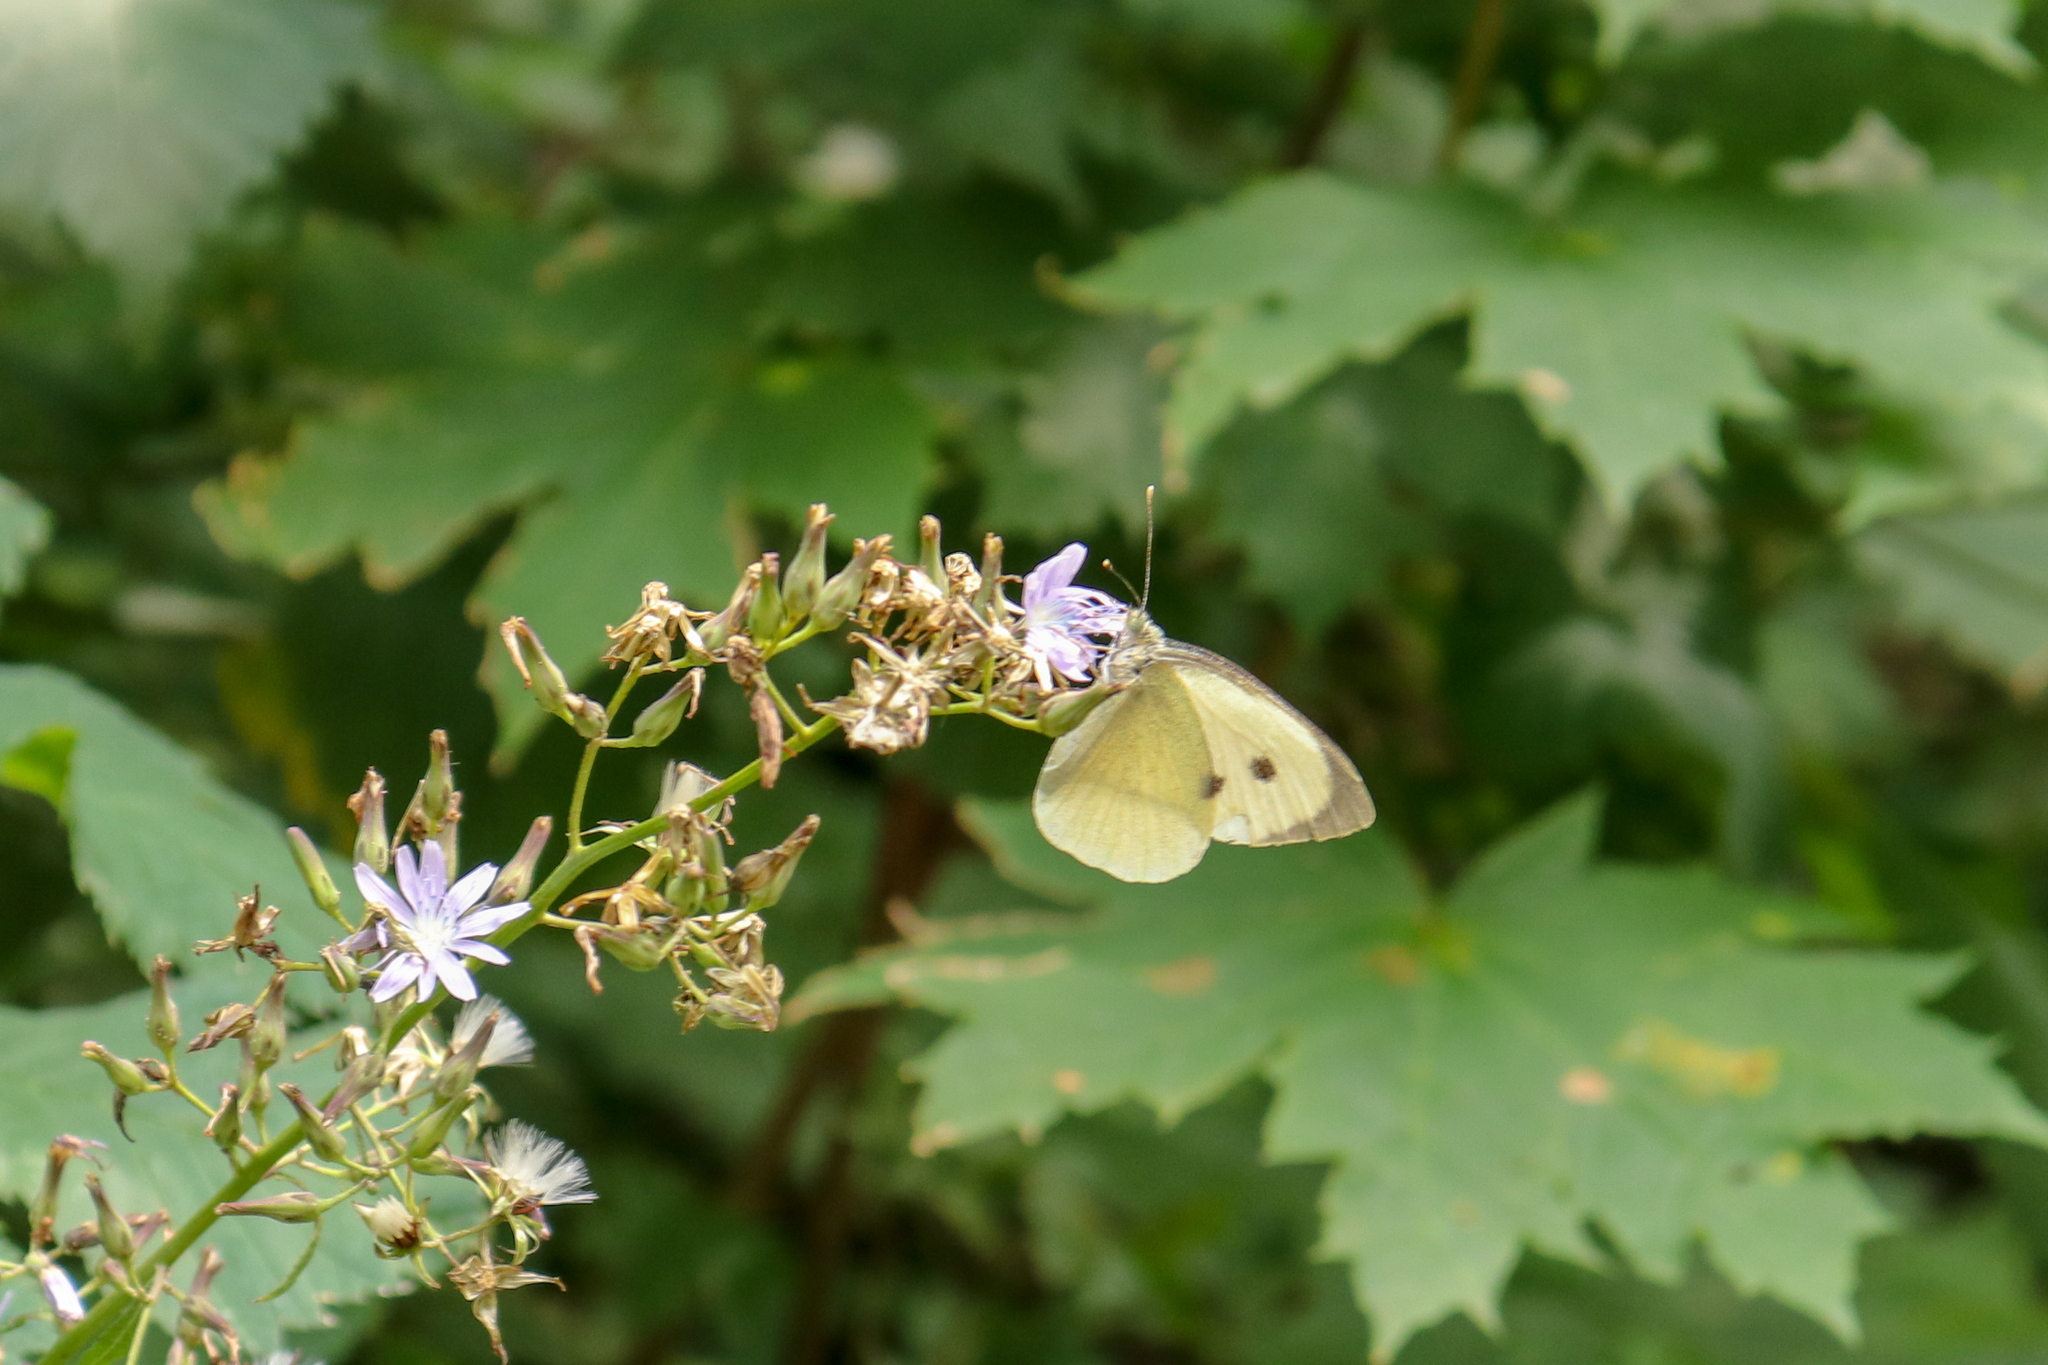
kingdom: Animalia
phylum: Arthropoda
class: Insecta
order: Lepidoptera
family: Pieridae
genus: Pieris
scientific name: Pieris brassicae
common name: Large white
